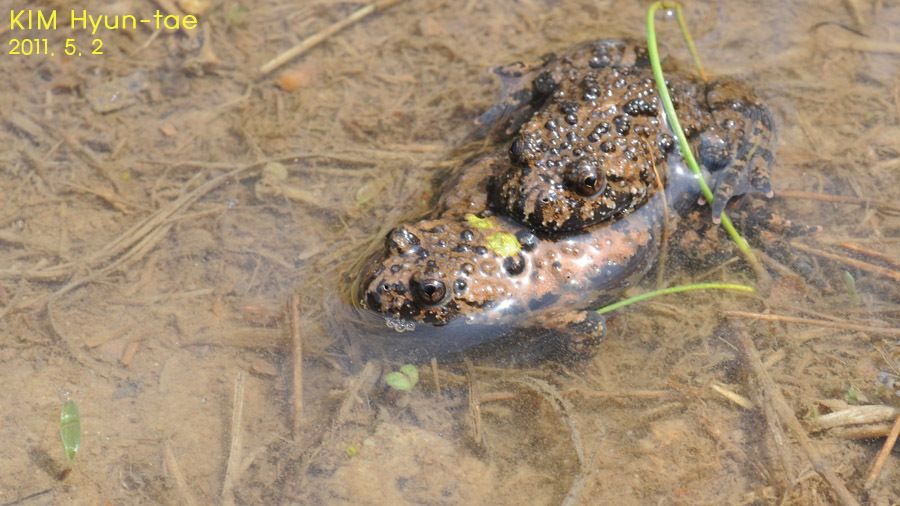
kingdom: Animalia
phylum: Chordata
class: Amphibia
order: Anura
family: Bombinatoridae
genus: Bombina
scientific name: Bombina orientalis
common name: Oriental firebelly toad
